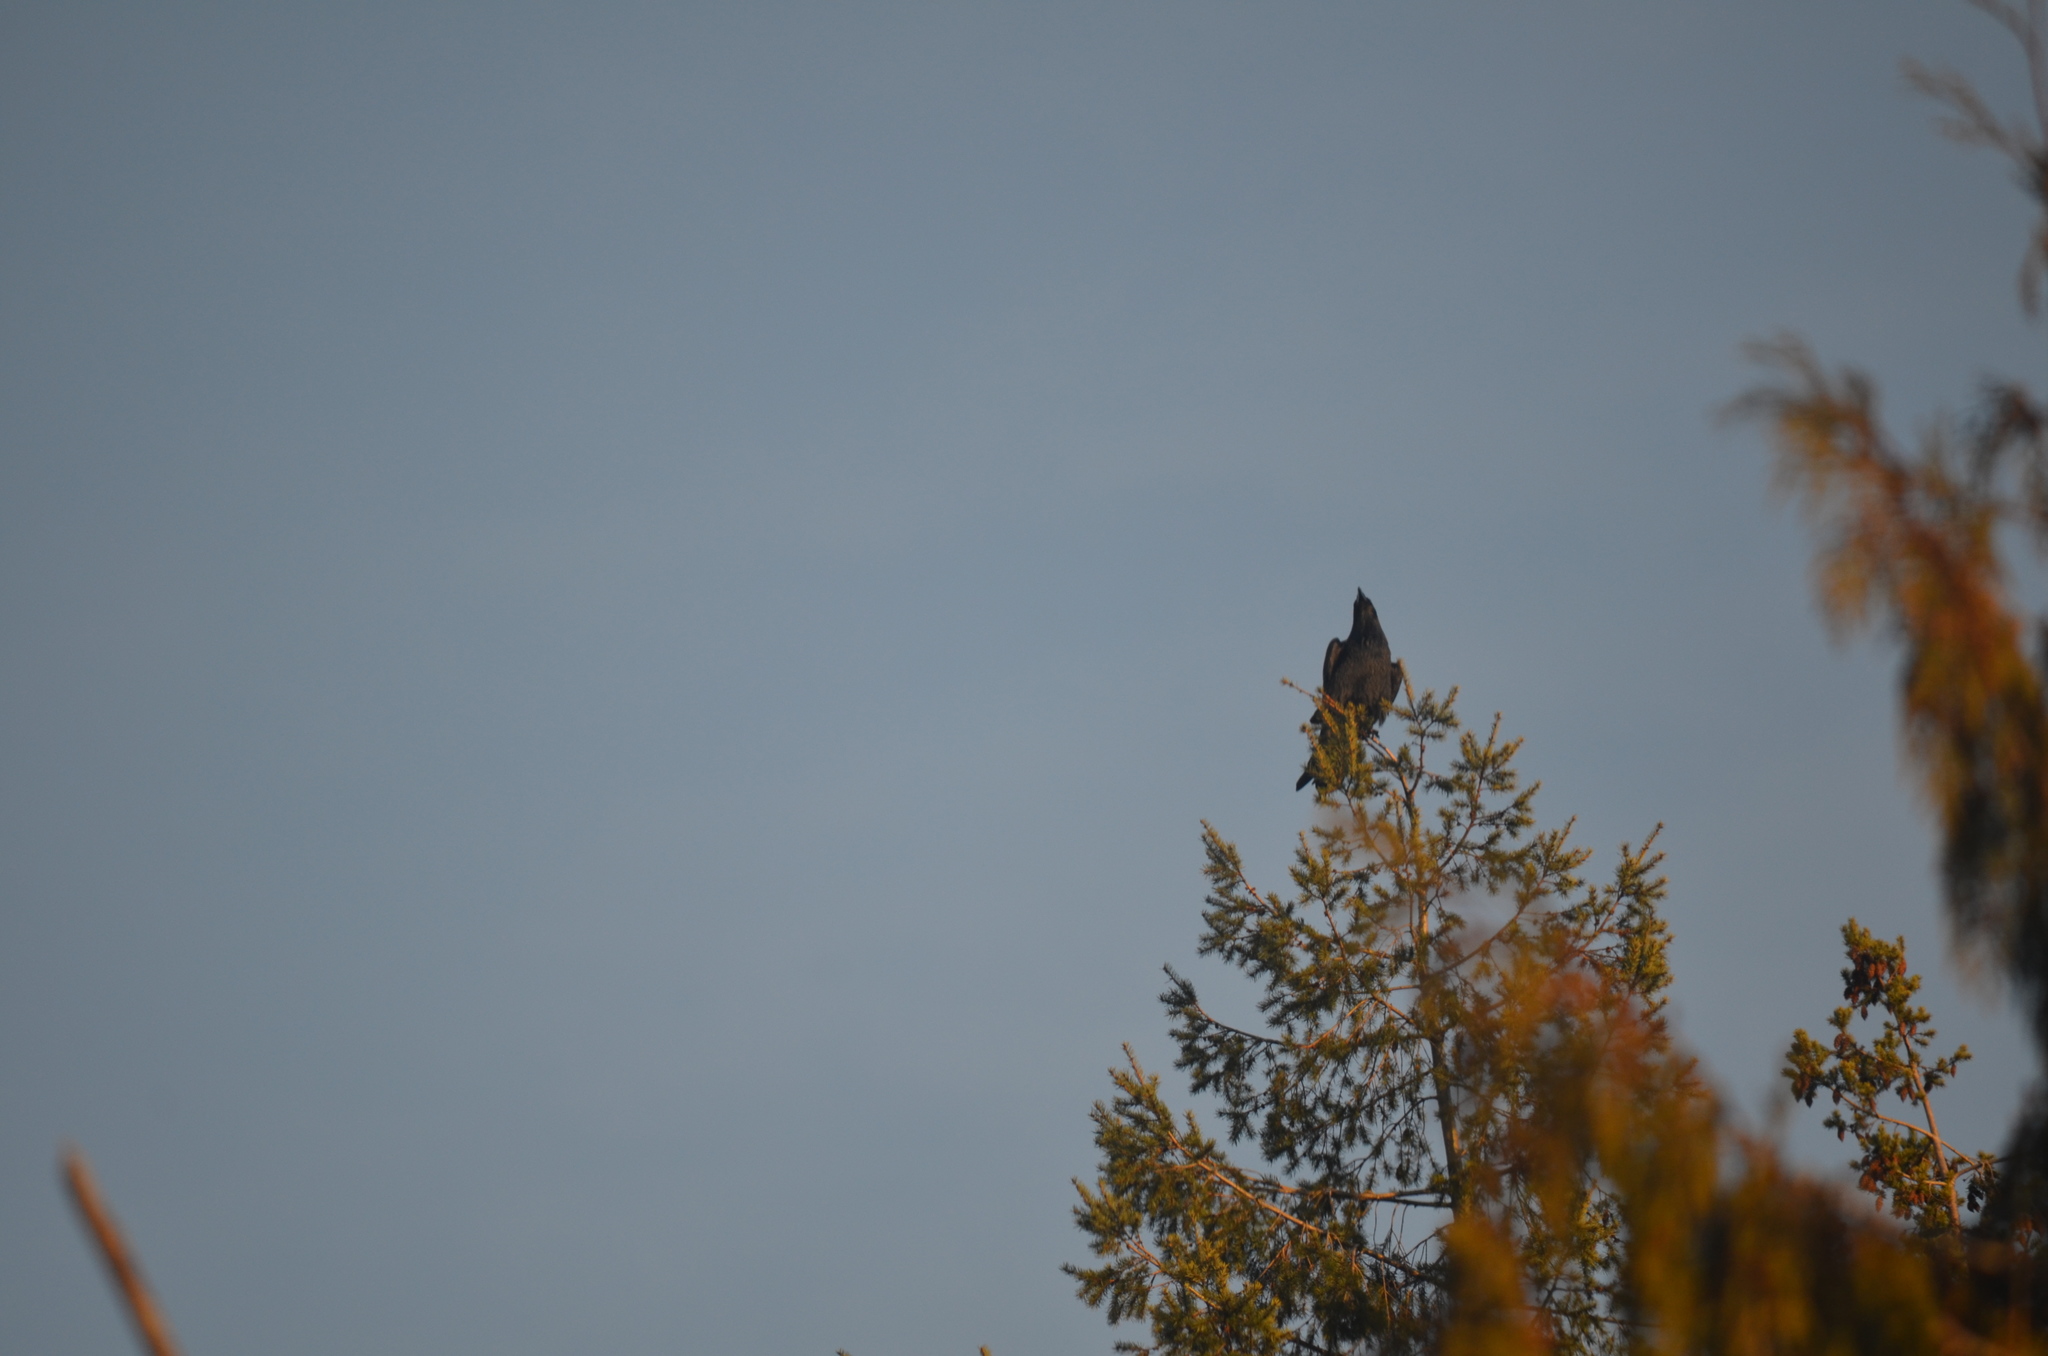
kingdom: Animalia
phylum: Chordata
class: Aves
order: Passeriformes
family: Corvidae
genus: Corvus
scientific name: Corvus corax
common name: Common raven
